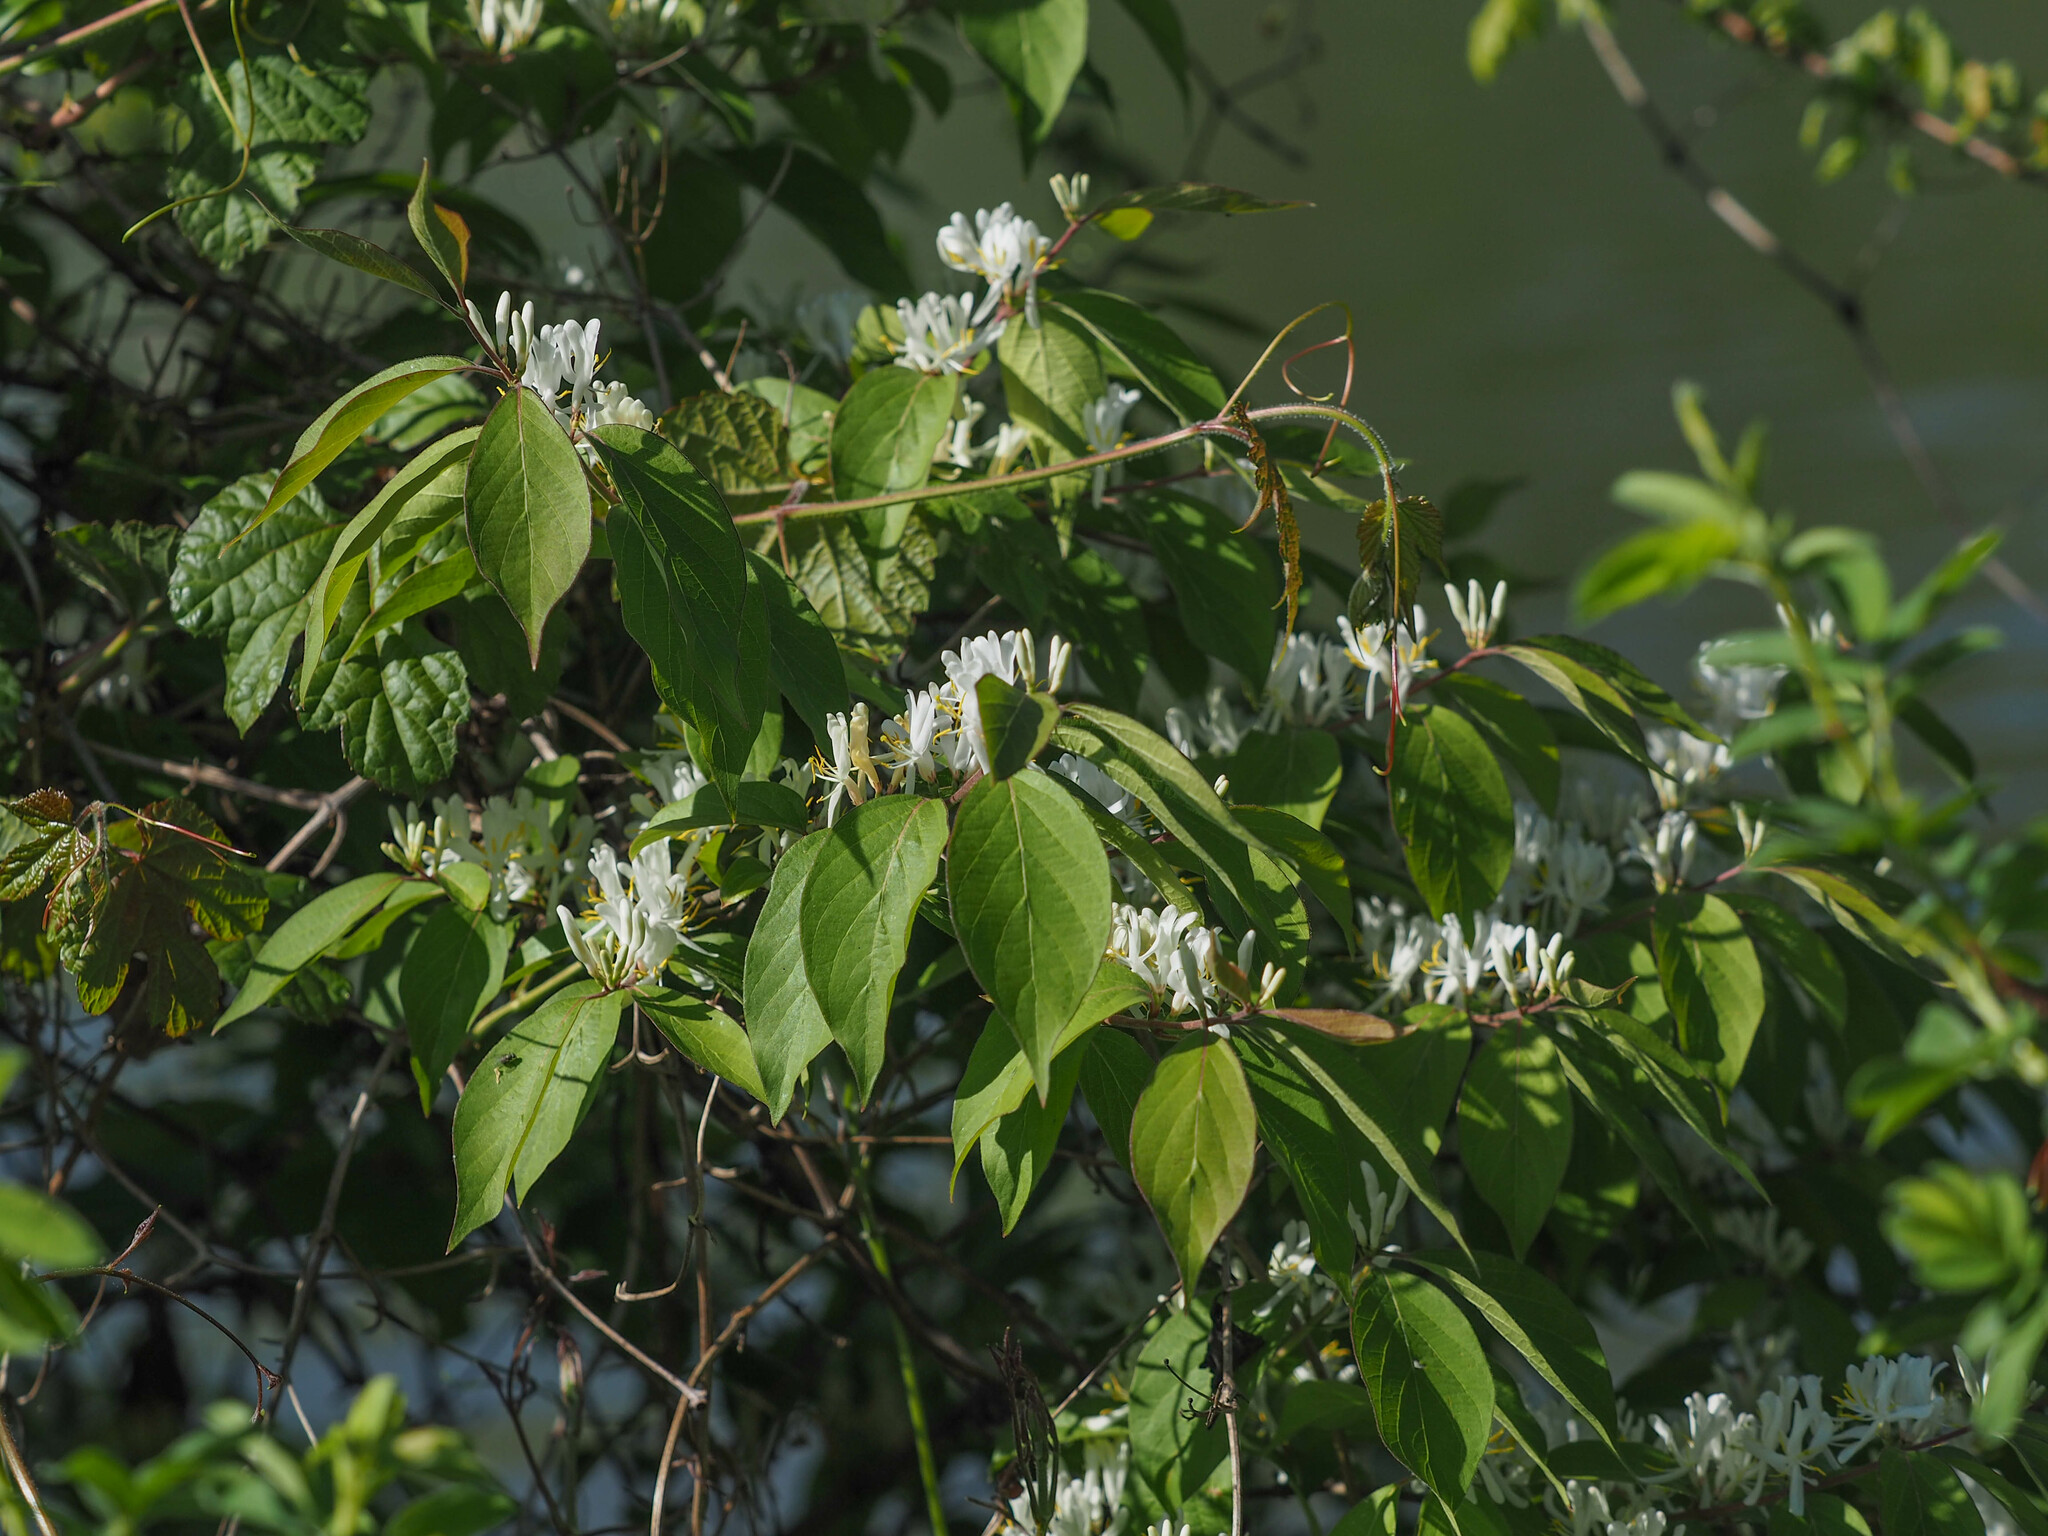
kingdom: Plantae
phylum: Tracheophyta
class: Magnoliopsida
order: Dipsacales
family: Caprifoliaceae
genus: Lonicera
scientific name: Lonicera maackii
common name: Amur honeysuckle
